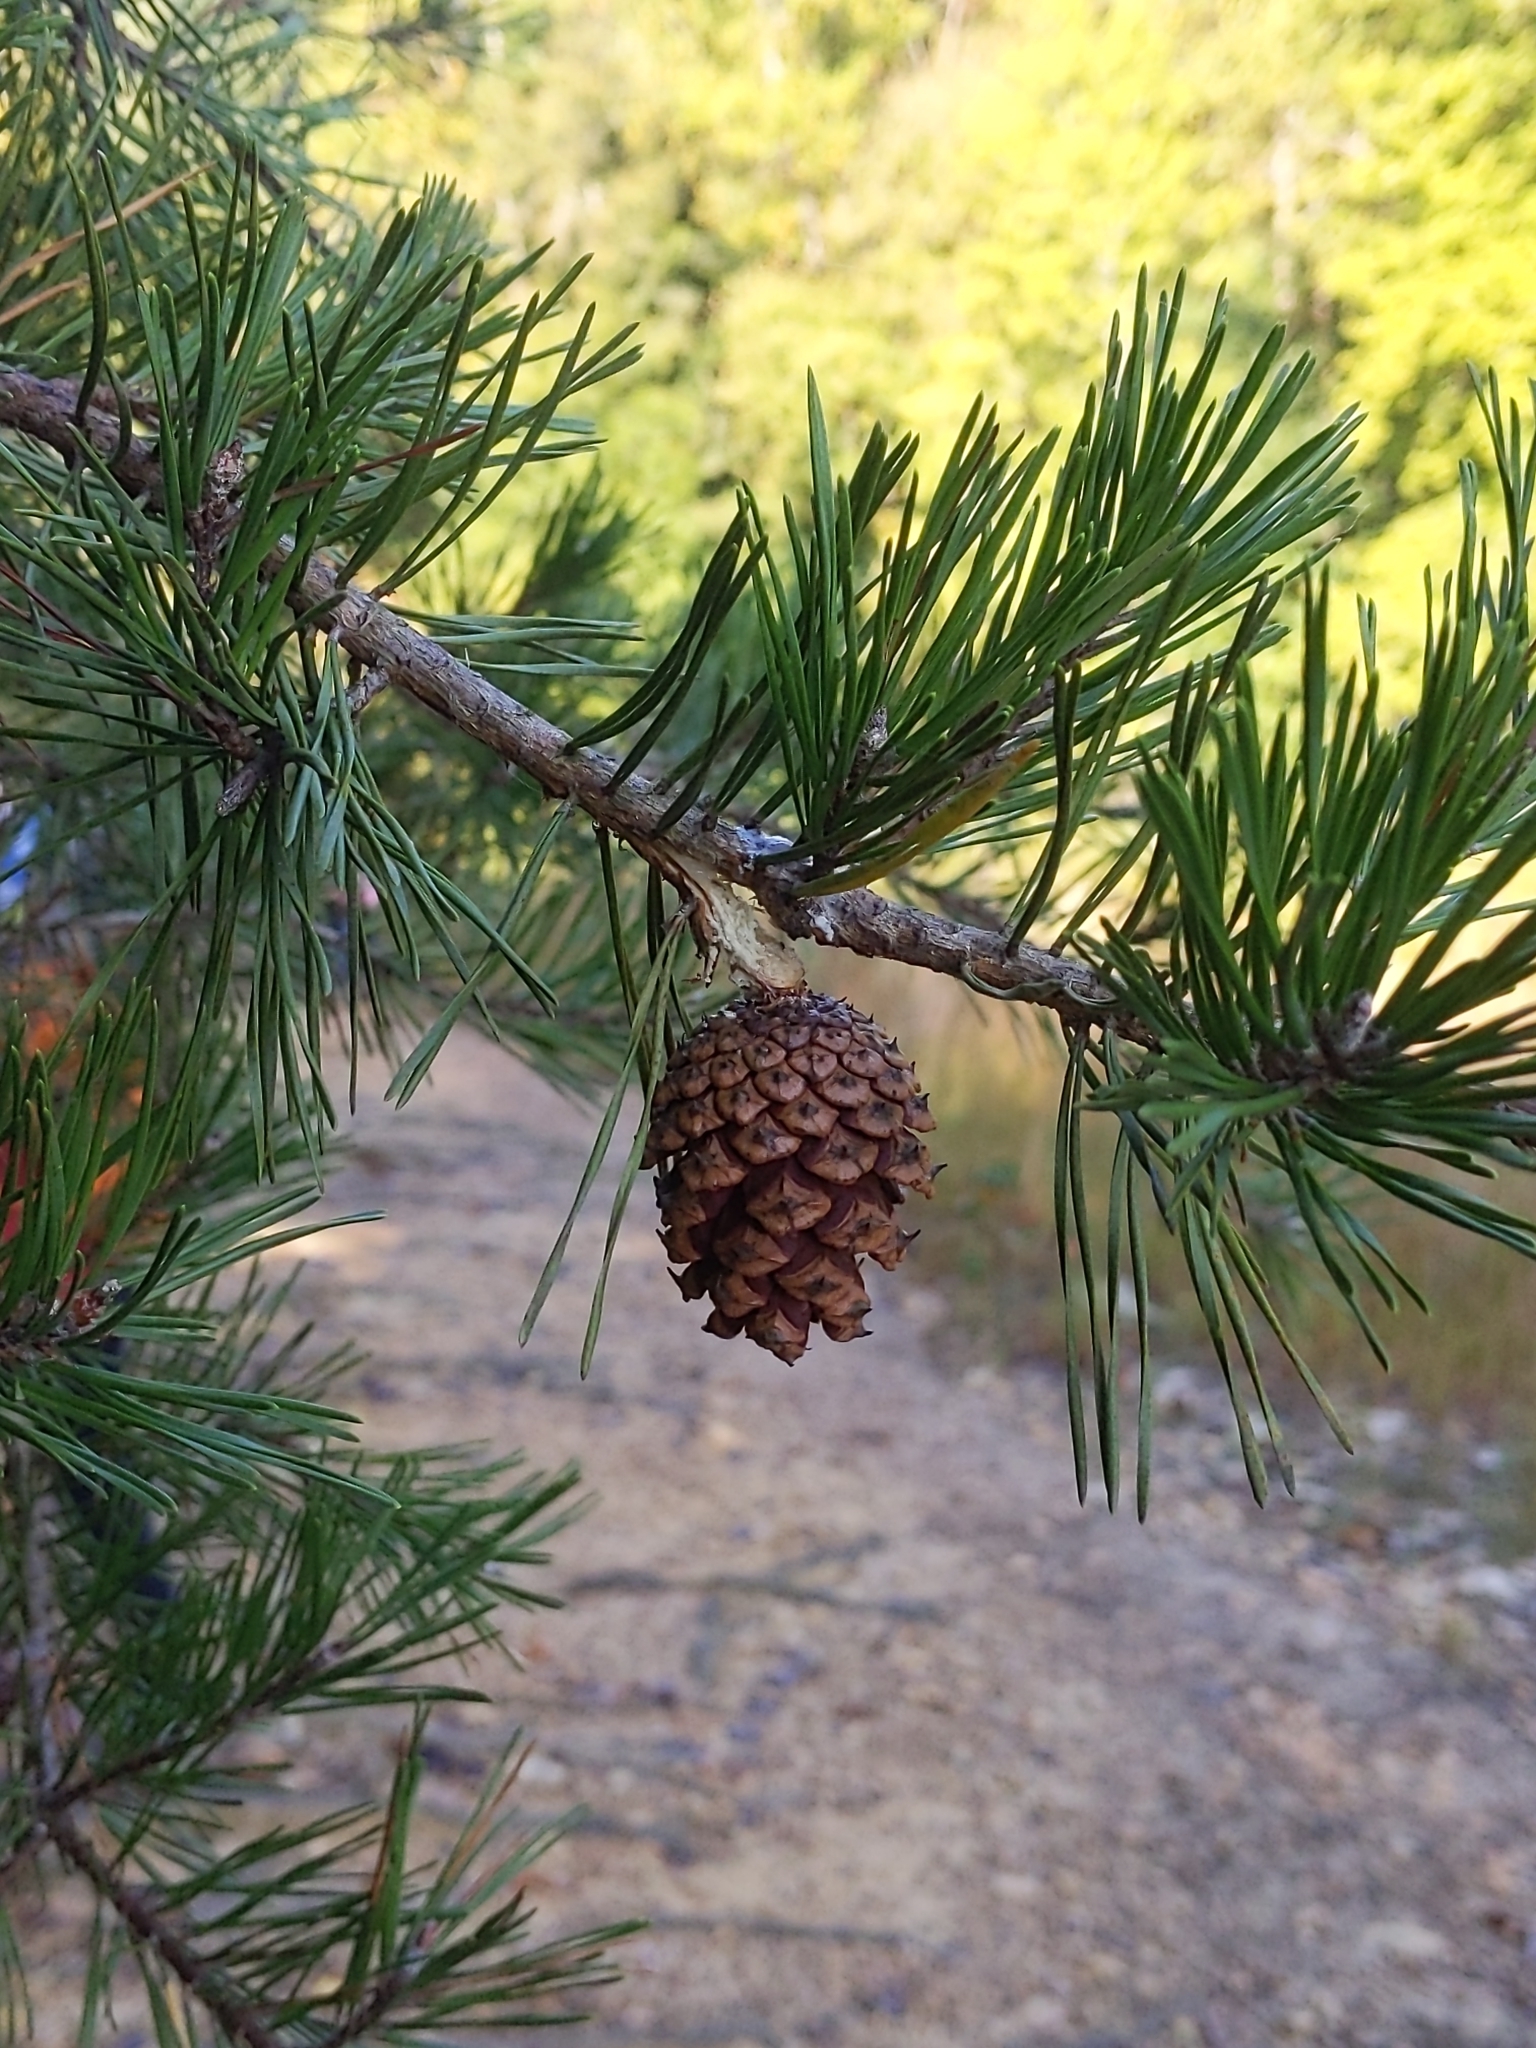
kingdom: Plantae
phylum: Tracheophyta
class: Pinopsida
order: Pinales
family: Pinaceae
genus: Pinus
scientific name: Pinus virginiana
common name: Scrub pine
